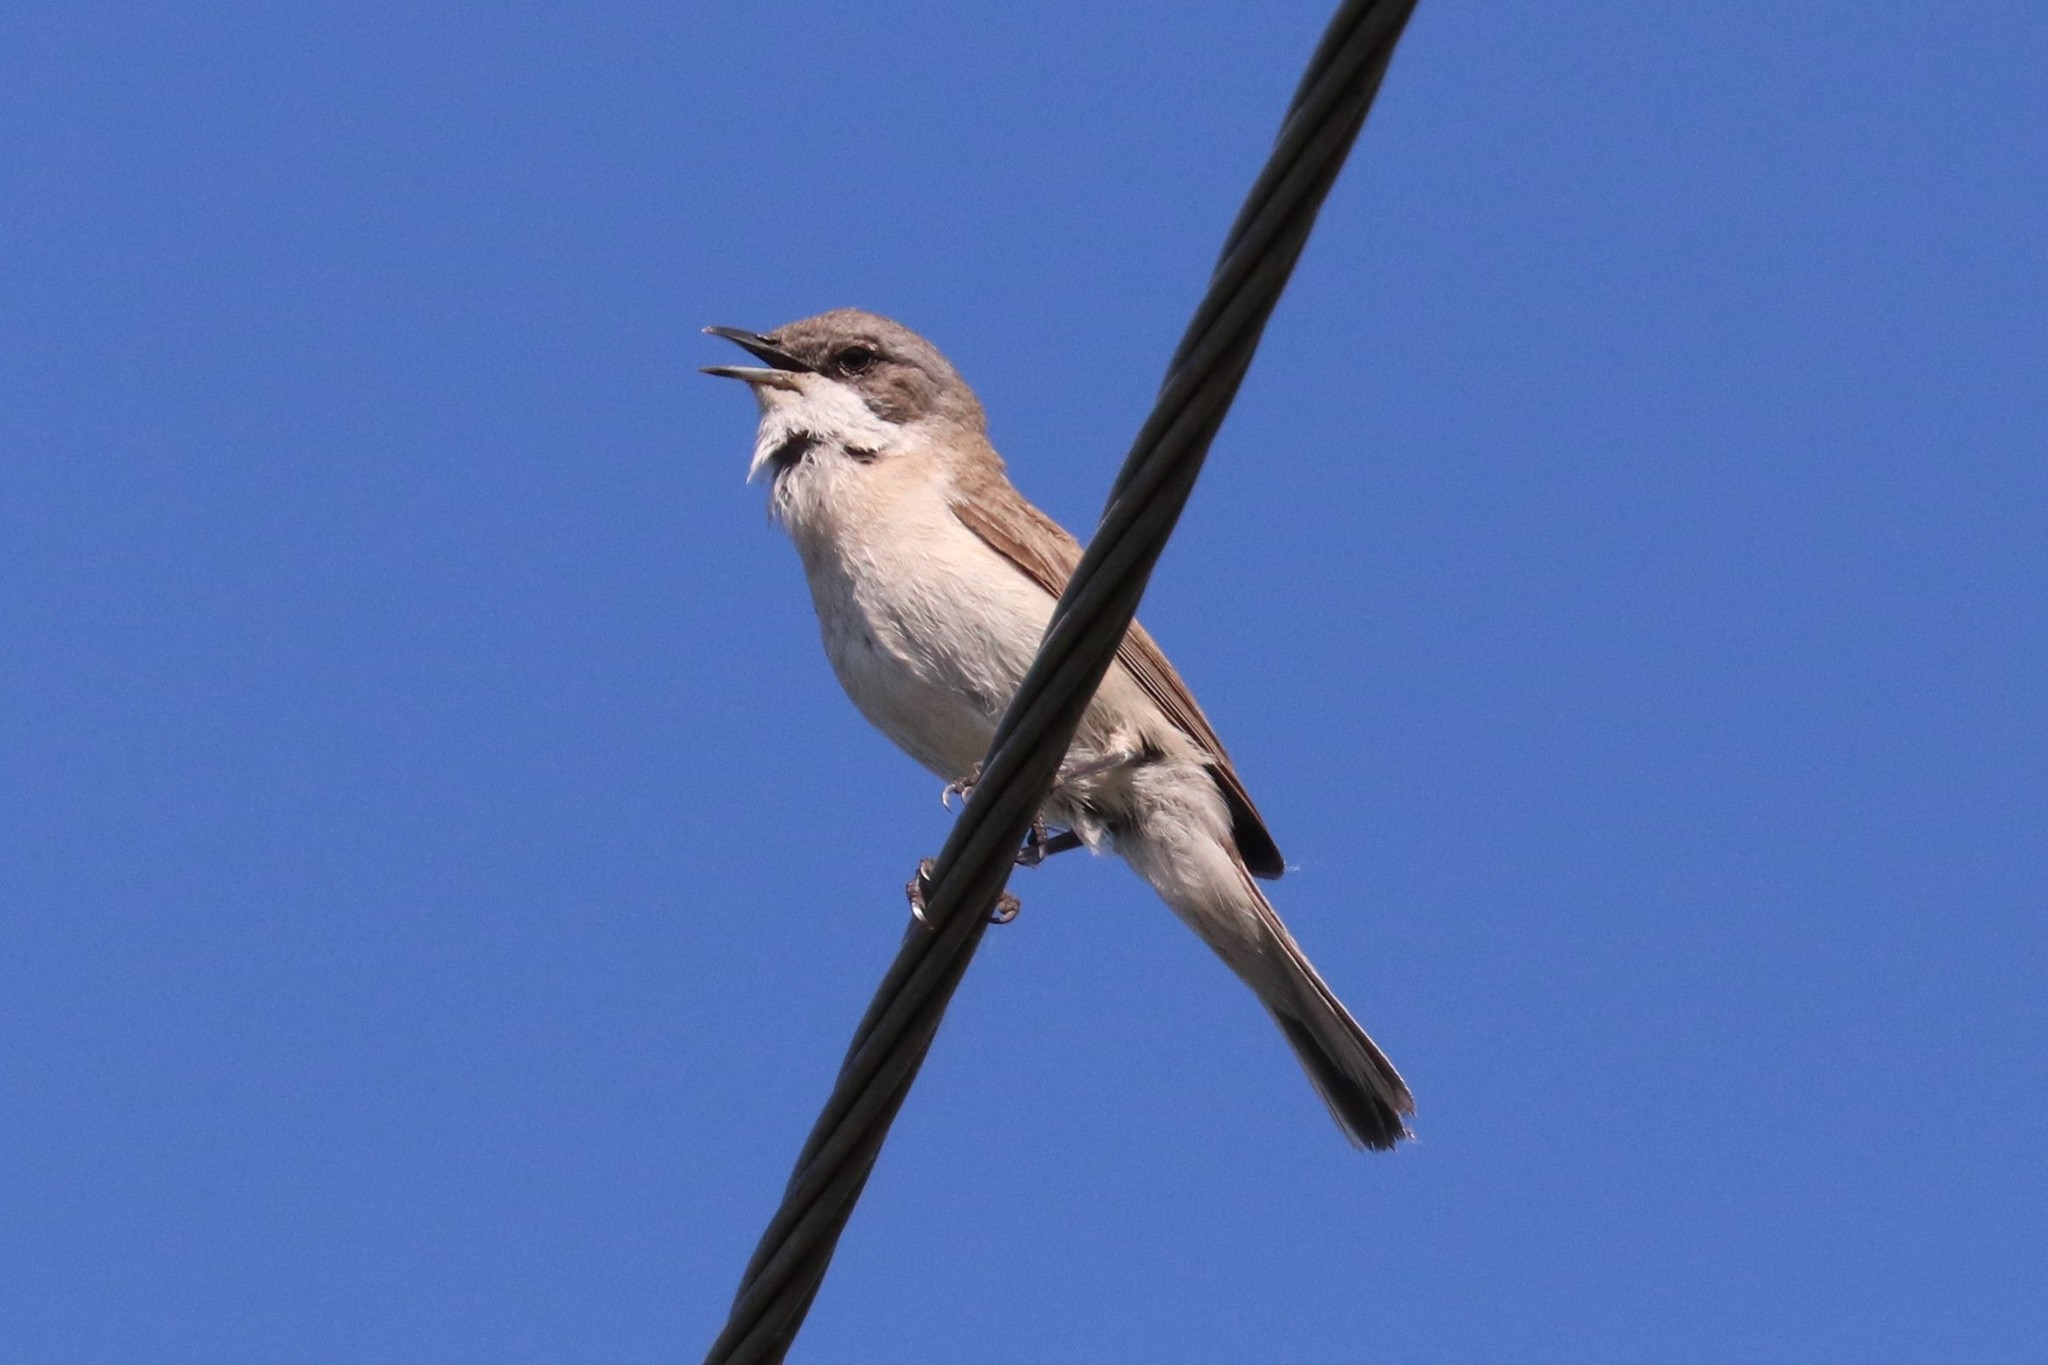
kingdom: Animalia
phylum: Chordata
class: Aves
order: Passeriformes
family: Sylviidae
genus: Sylvia
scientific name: Sylvia curruca
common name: Lesser whitethroat
